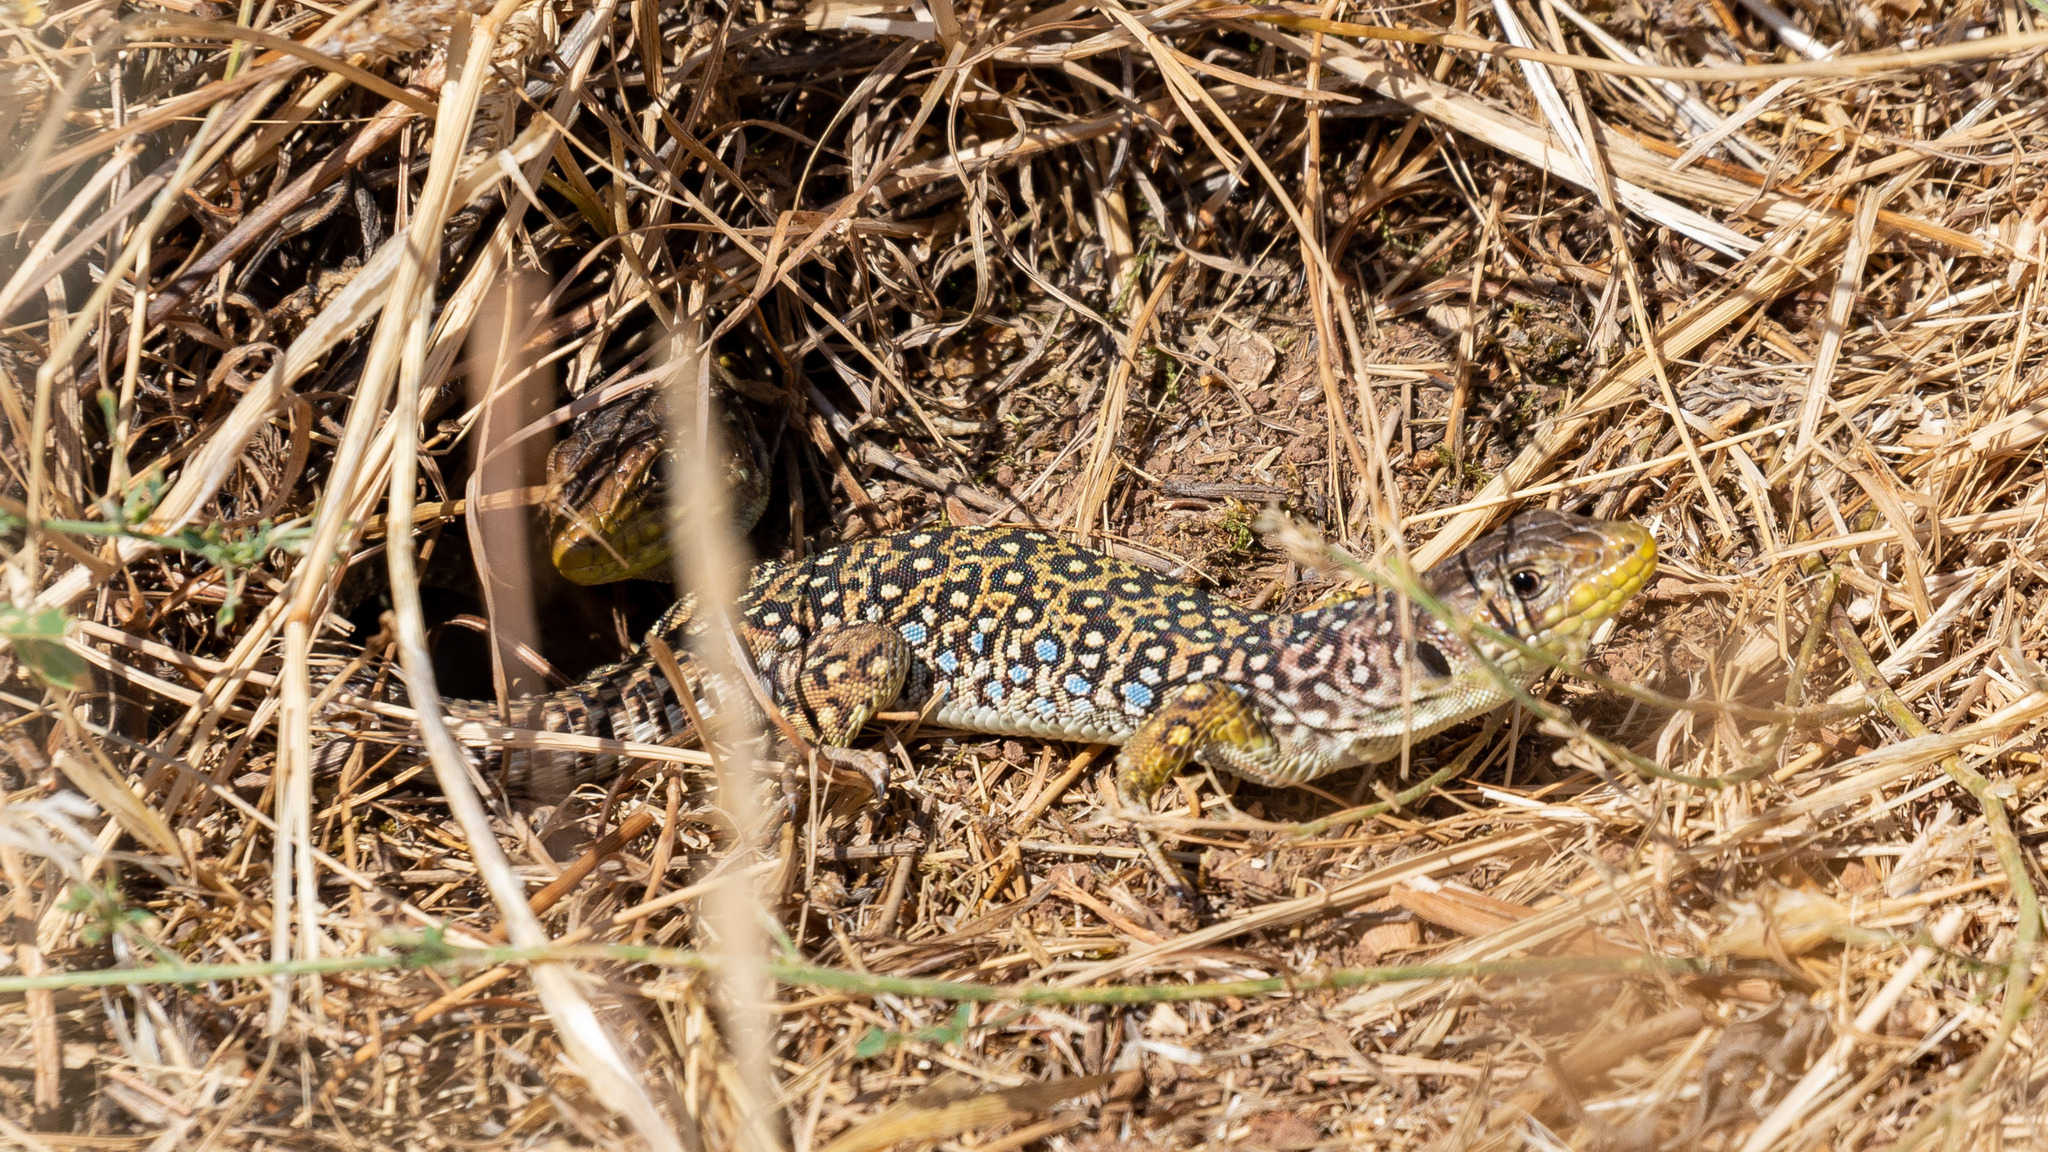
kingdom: Animalia
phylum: Chordata
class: Squamata
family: Lacertidae
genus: Timon
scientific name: Timon lepidus
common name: Ocellated lizard
